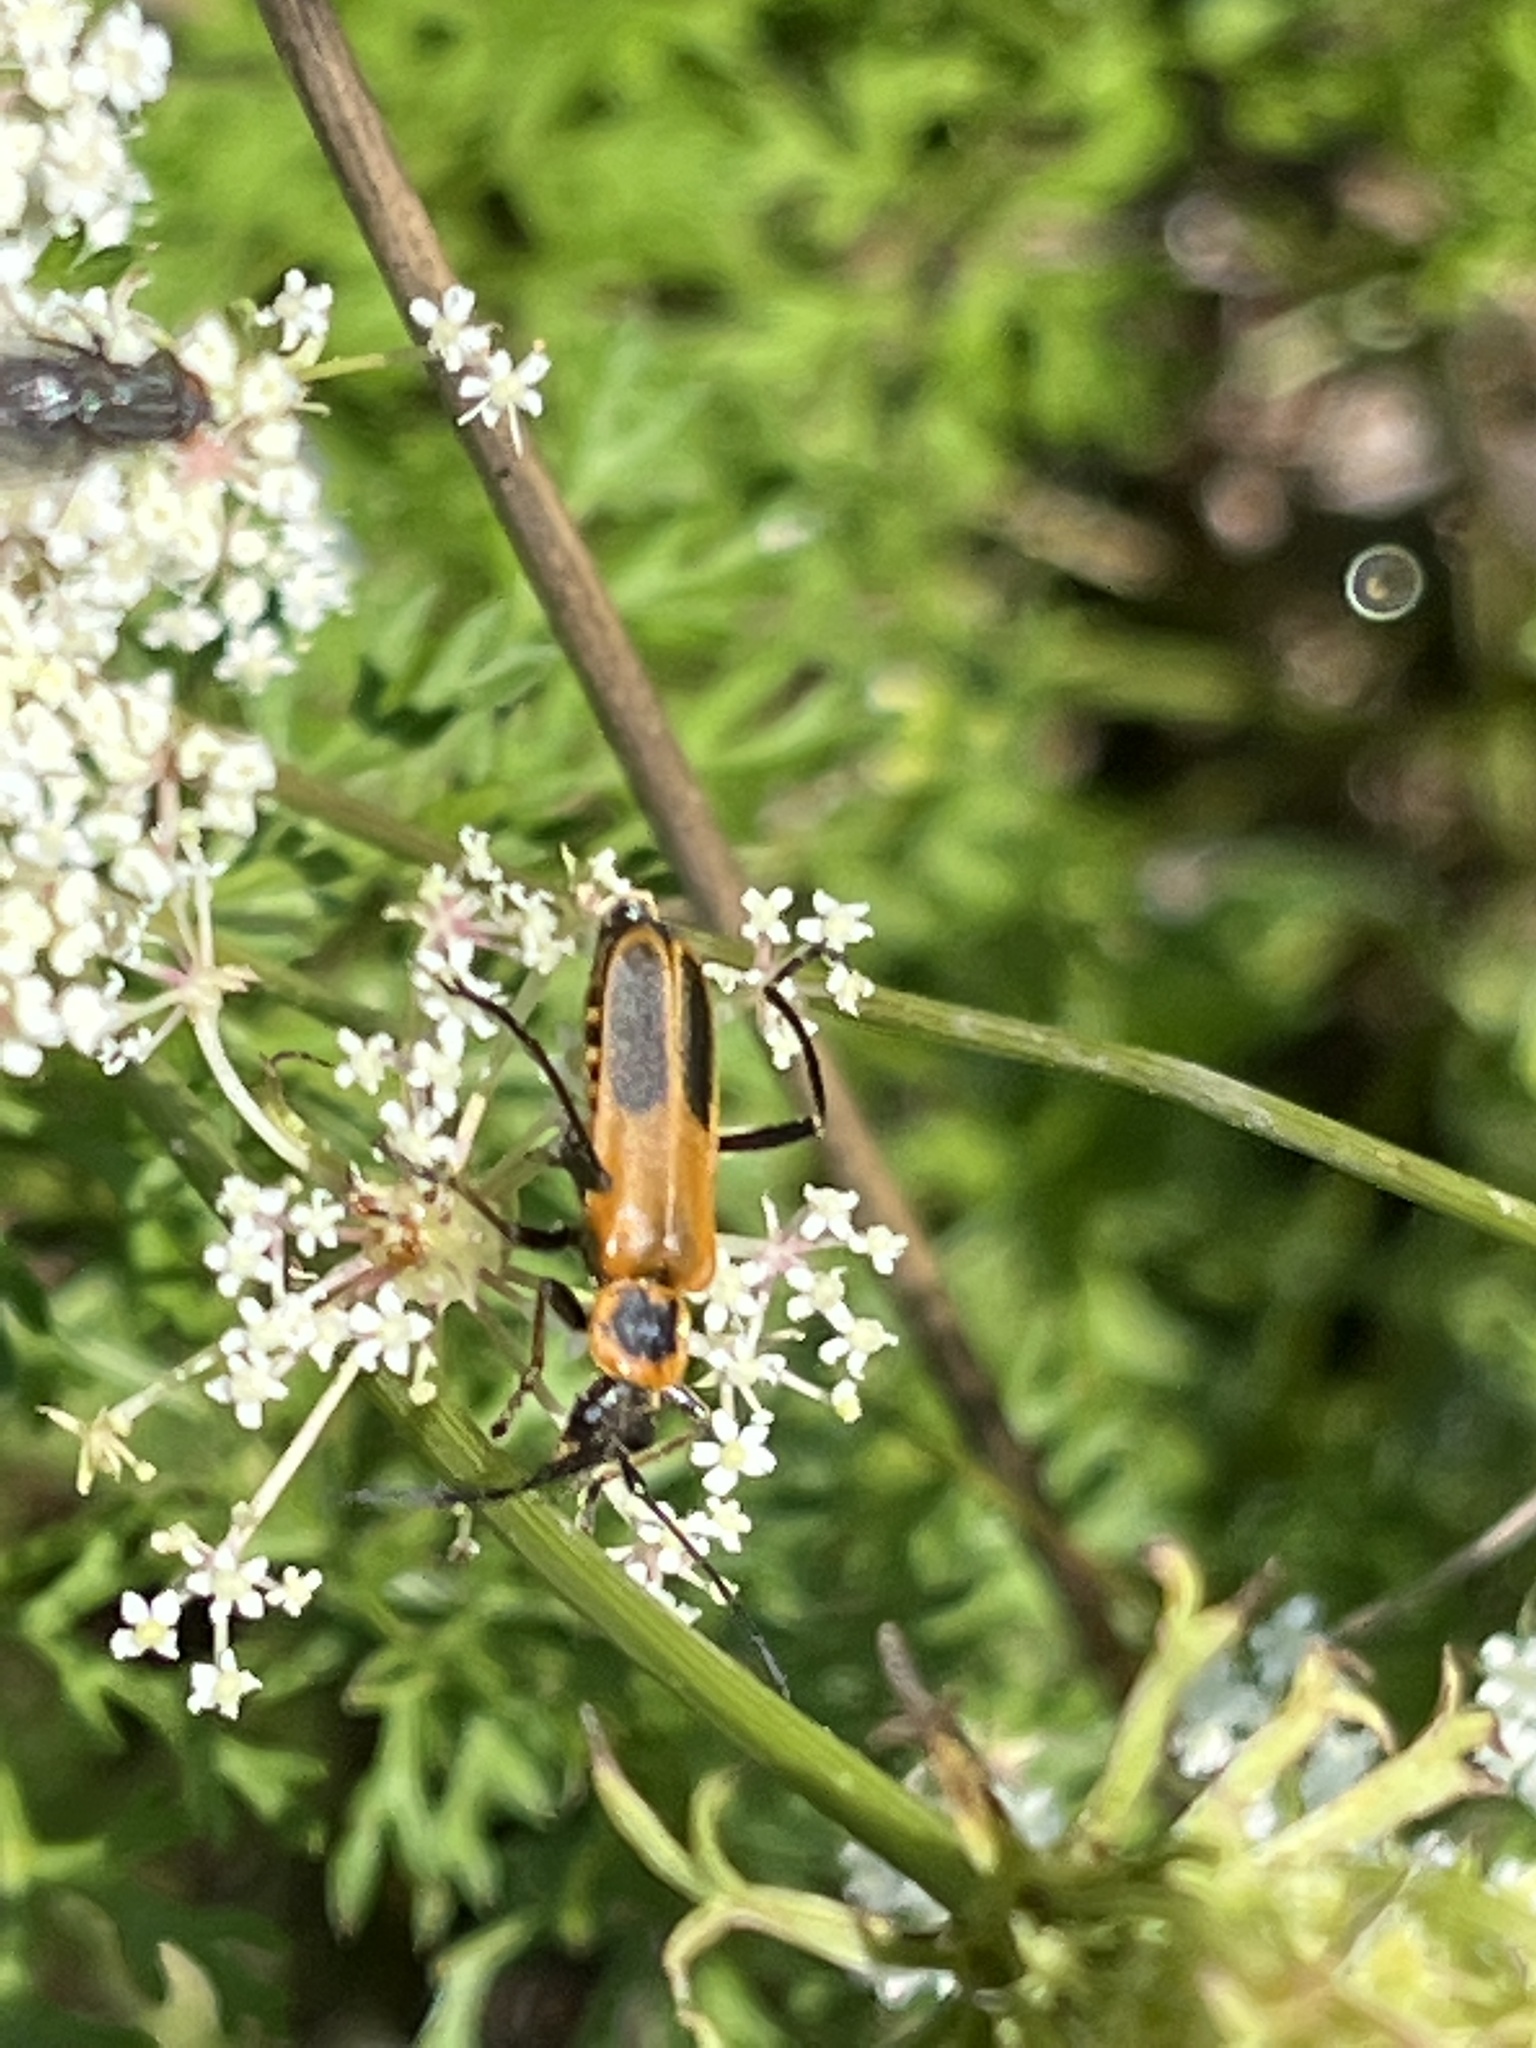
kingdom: Animalia
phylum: Arthropoda
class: Insecta
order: Coleoptera
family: Cantharidae
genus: Chauliognathus
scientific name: Chauliognathus pensylvanicus
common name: Goldenrod soldier beetle
